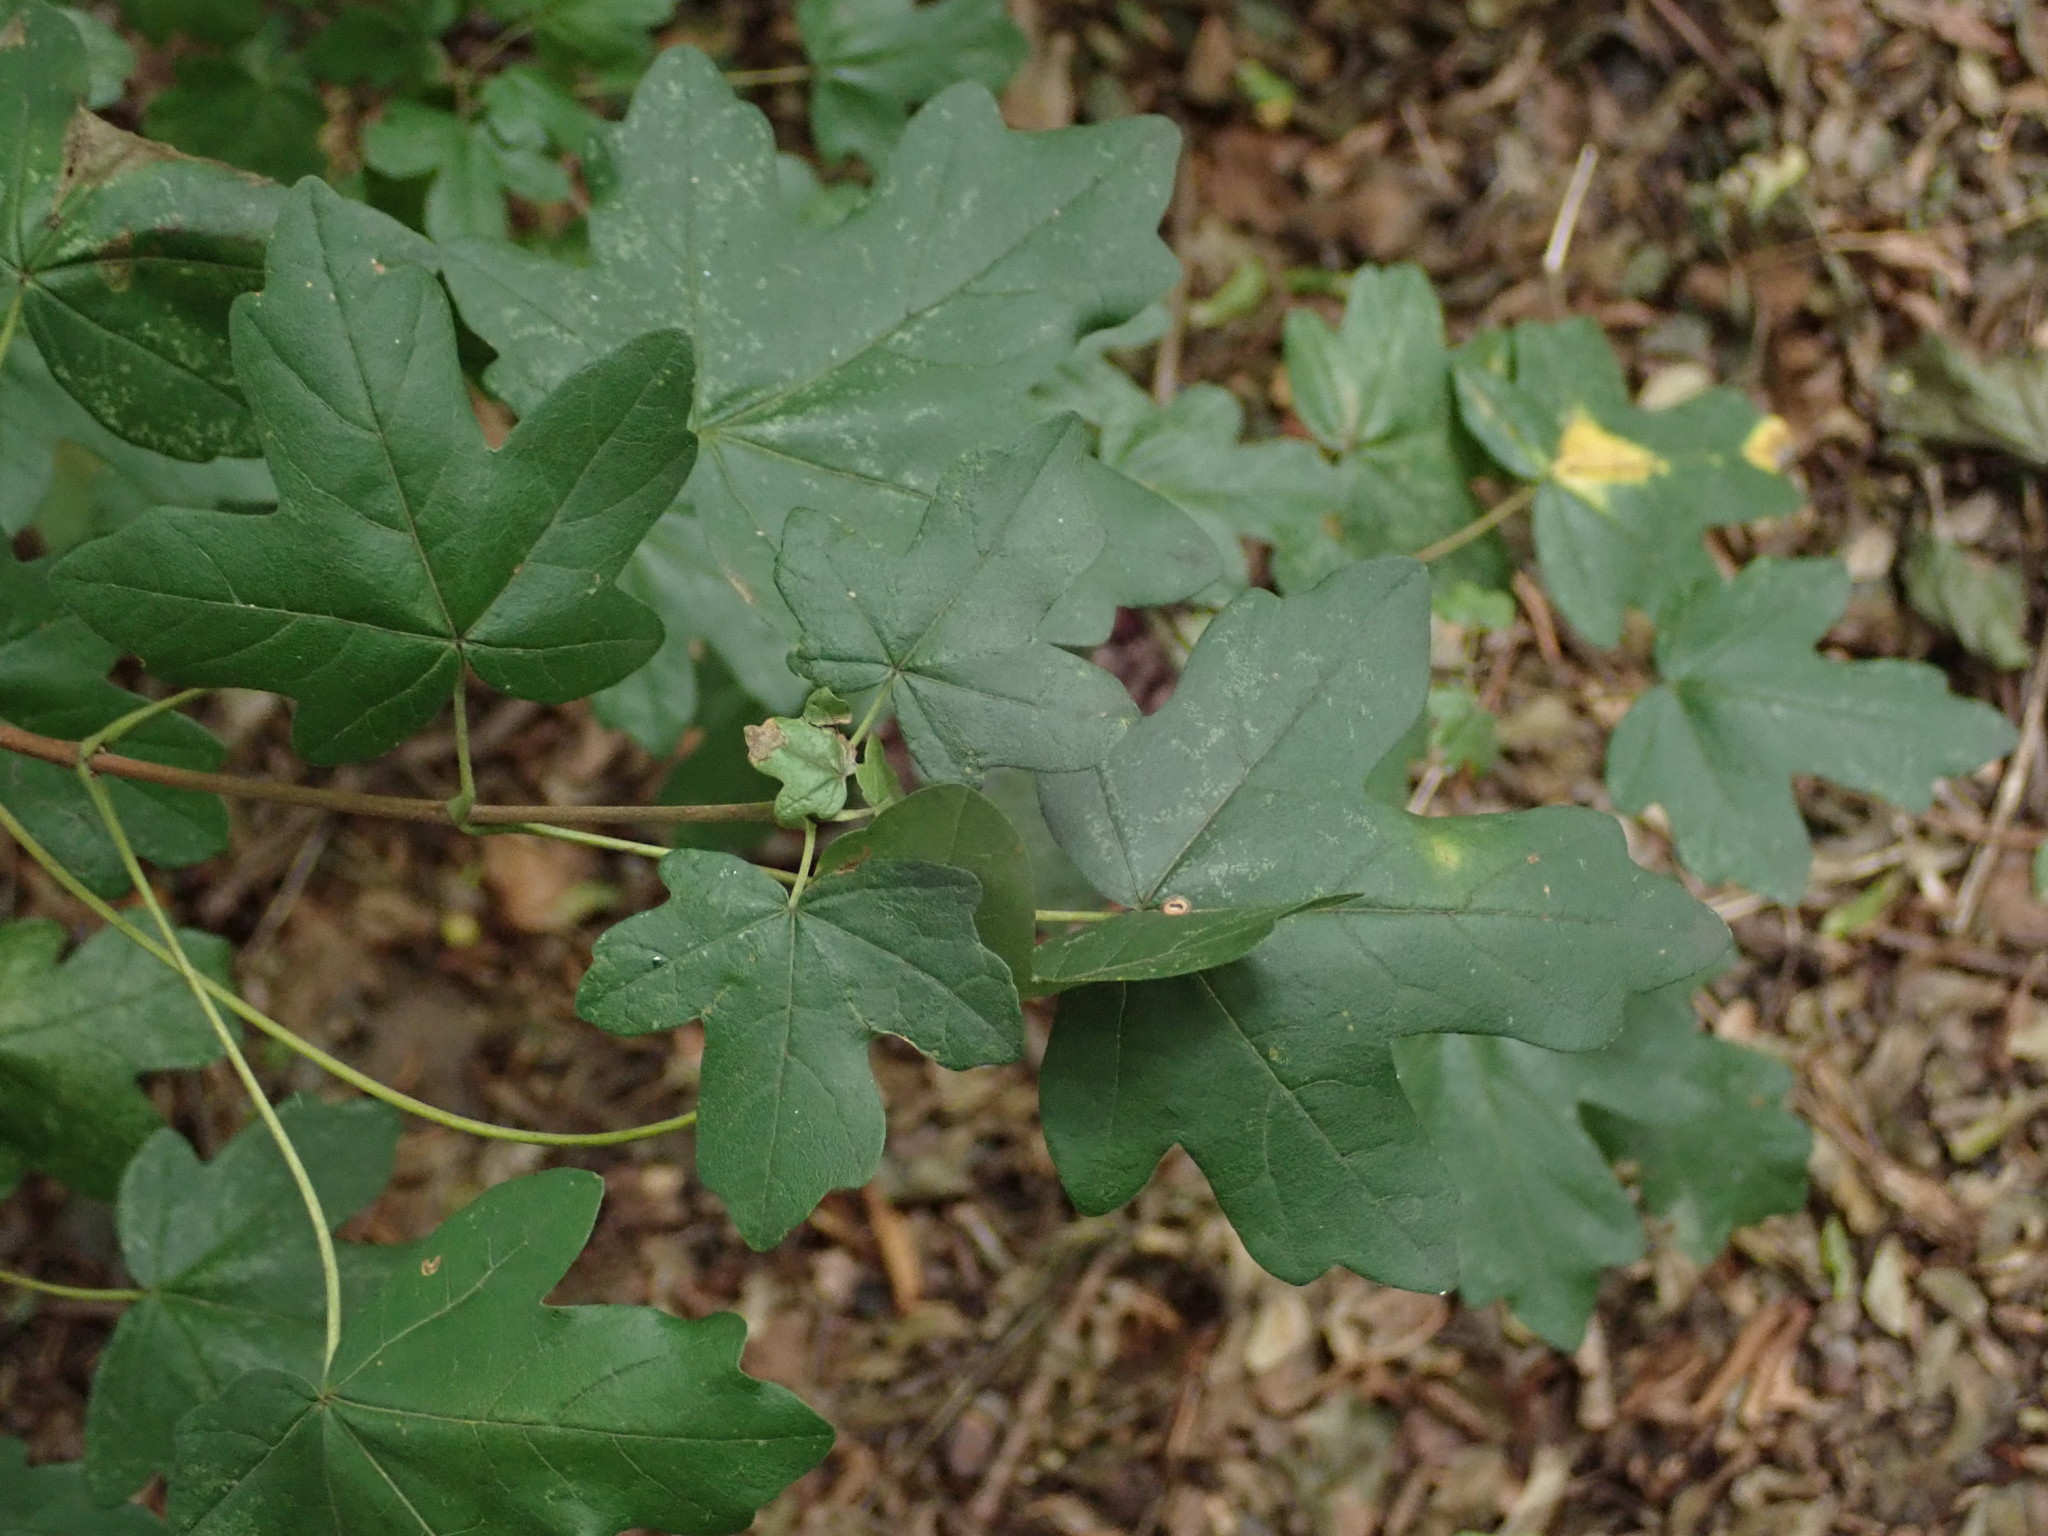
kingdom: Plantae
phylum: Tracheophyta
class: Magnoliopsida
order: Sapindales
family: Sapindaceae
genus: Acer
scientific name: Acer campestre
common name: Field maple
